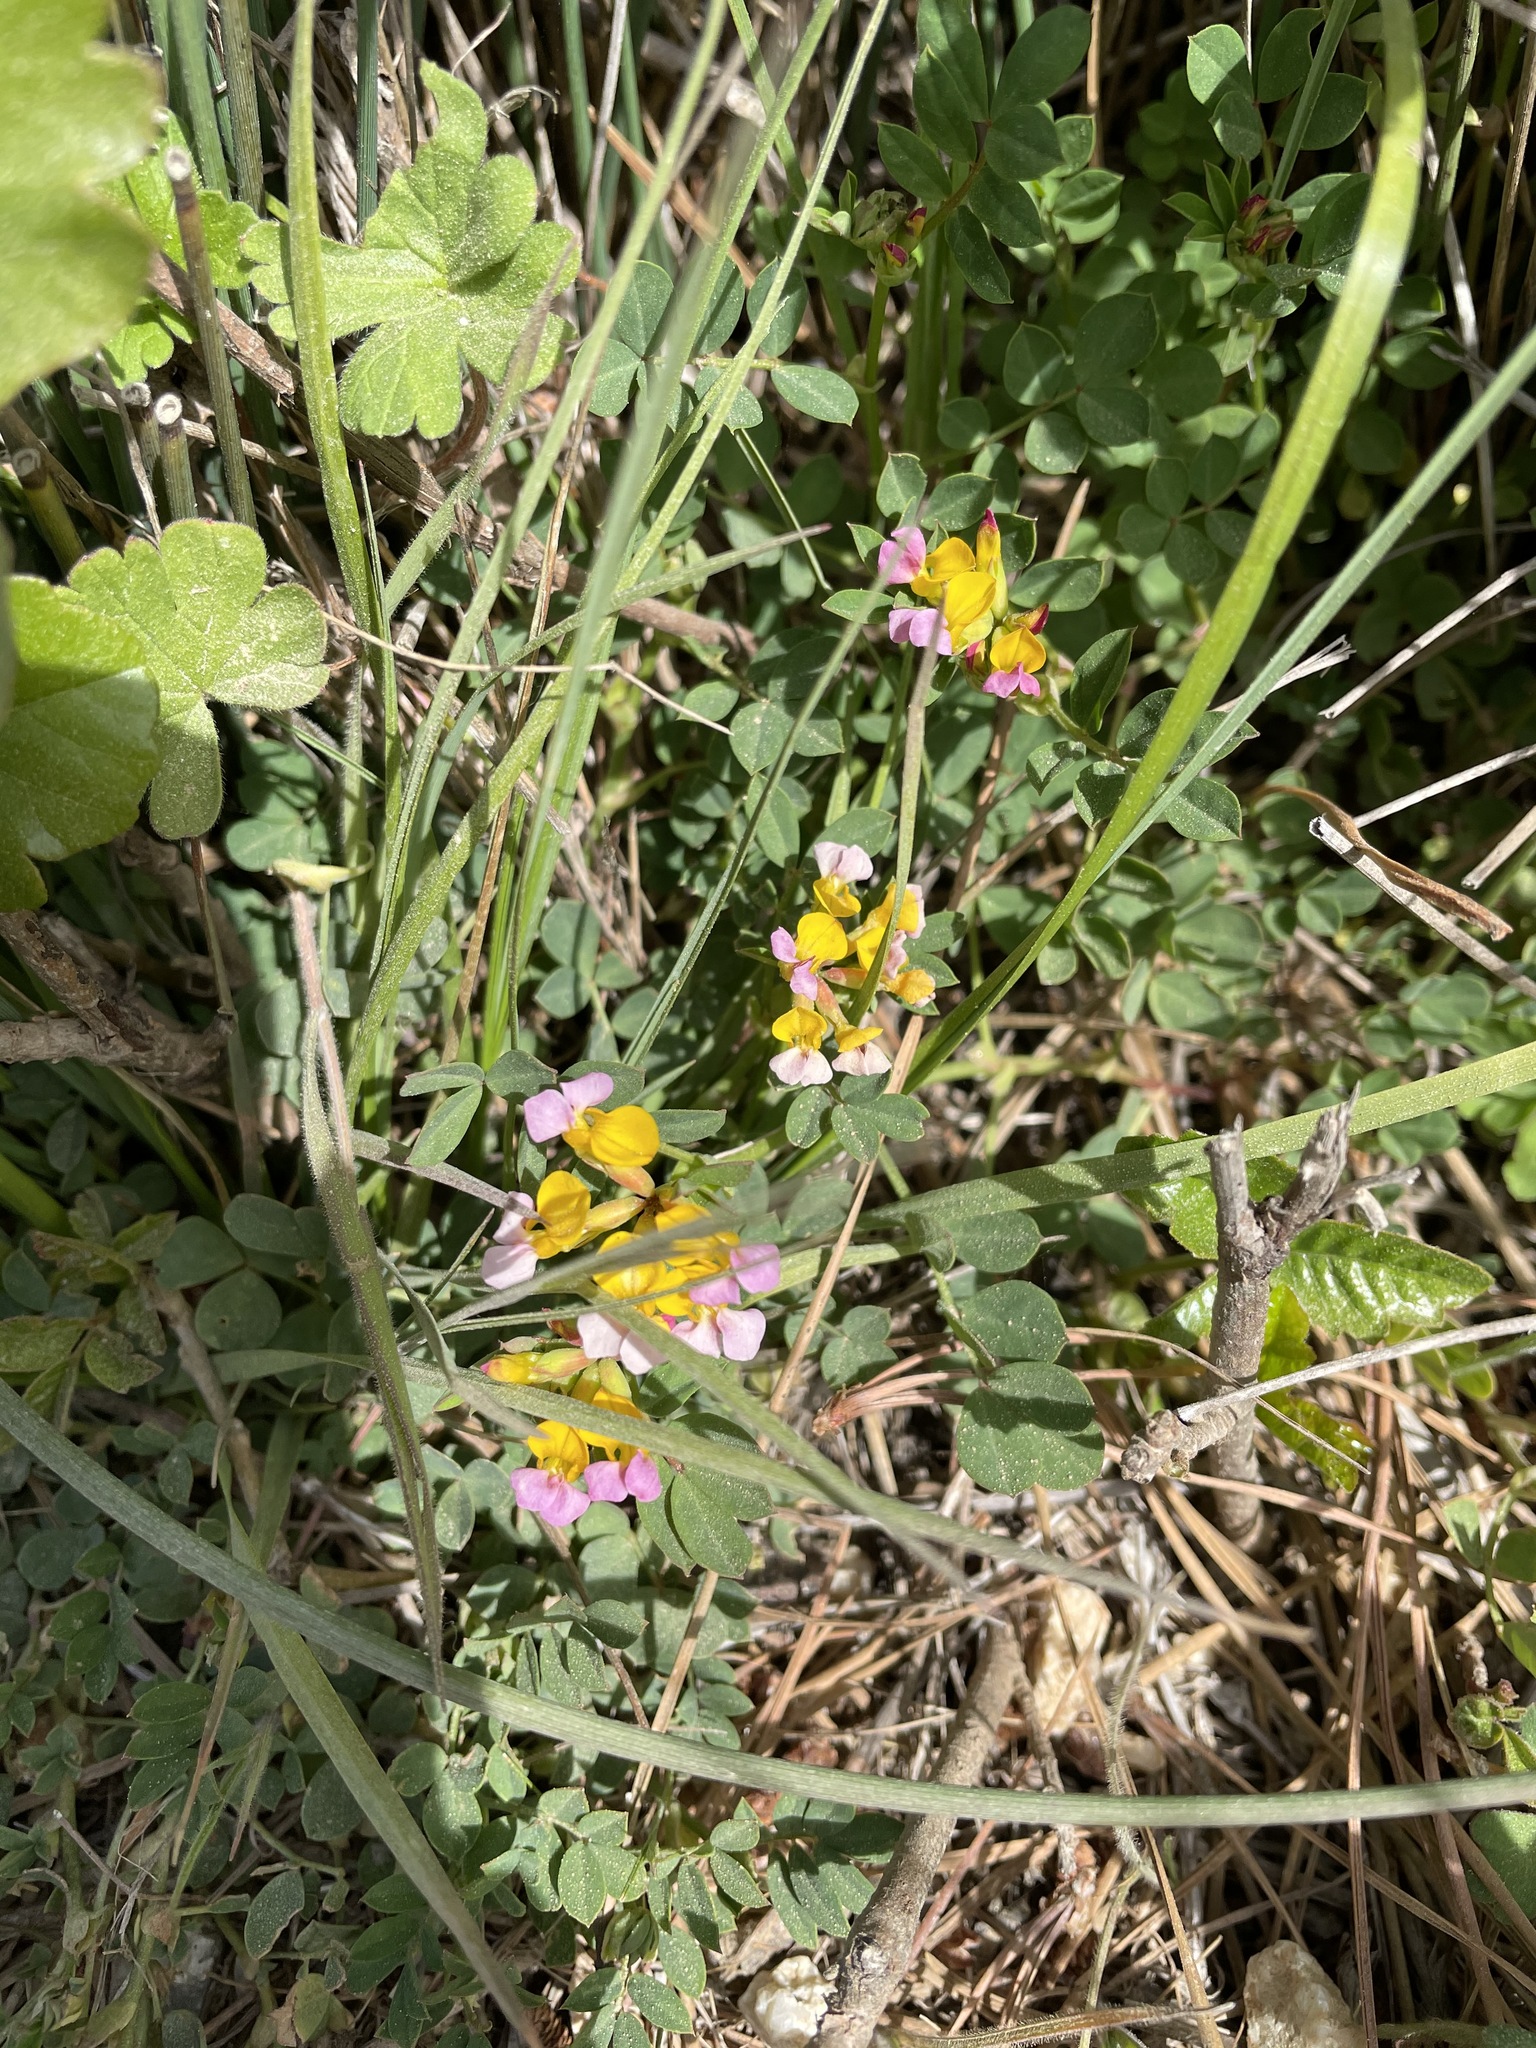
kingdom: Plantae
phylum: Tracheophyta
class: Magnoliopsida
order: Fabales
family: Fabaceae
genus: Hosackia
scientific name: Hosackia gracilis
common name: Seaside bird's-foot lotus
